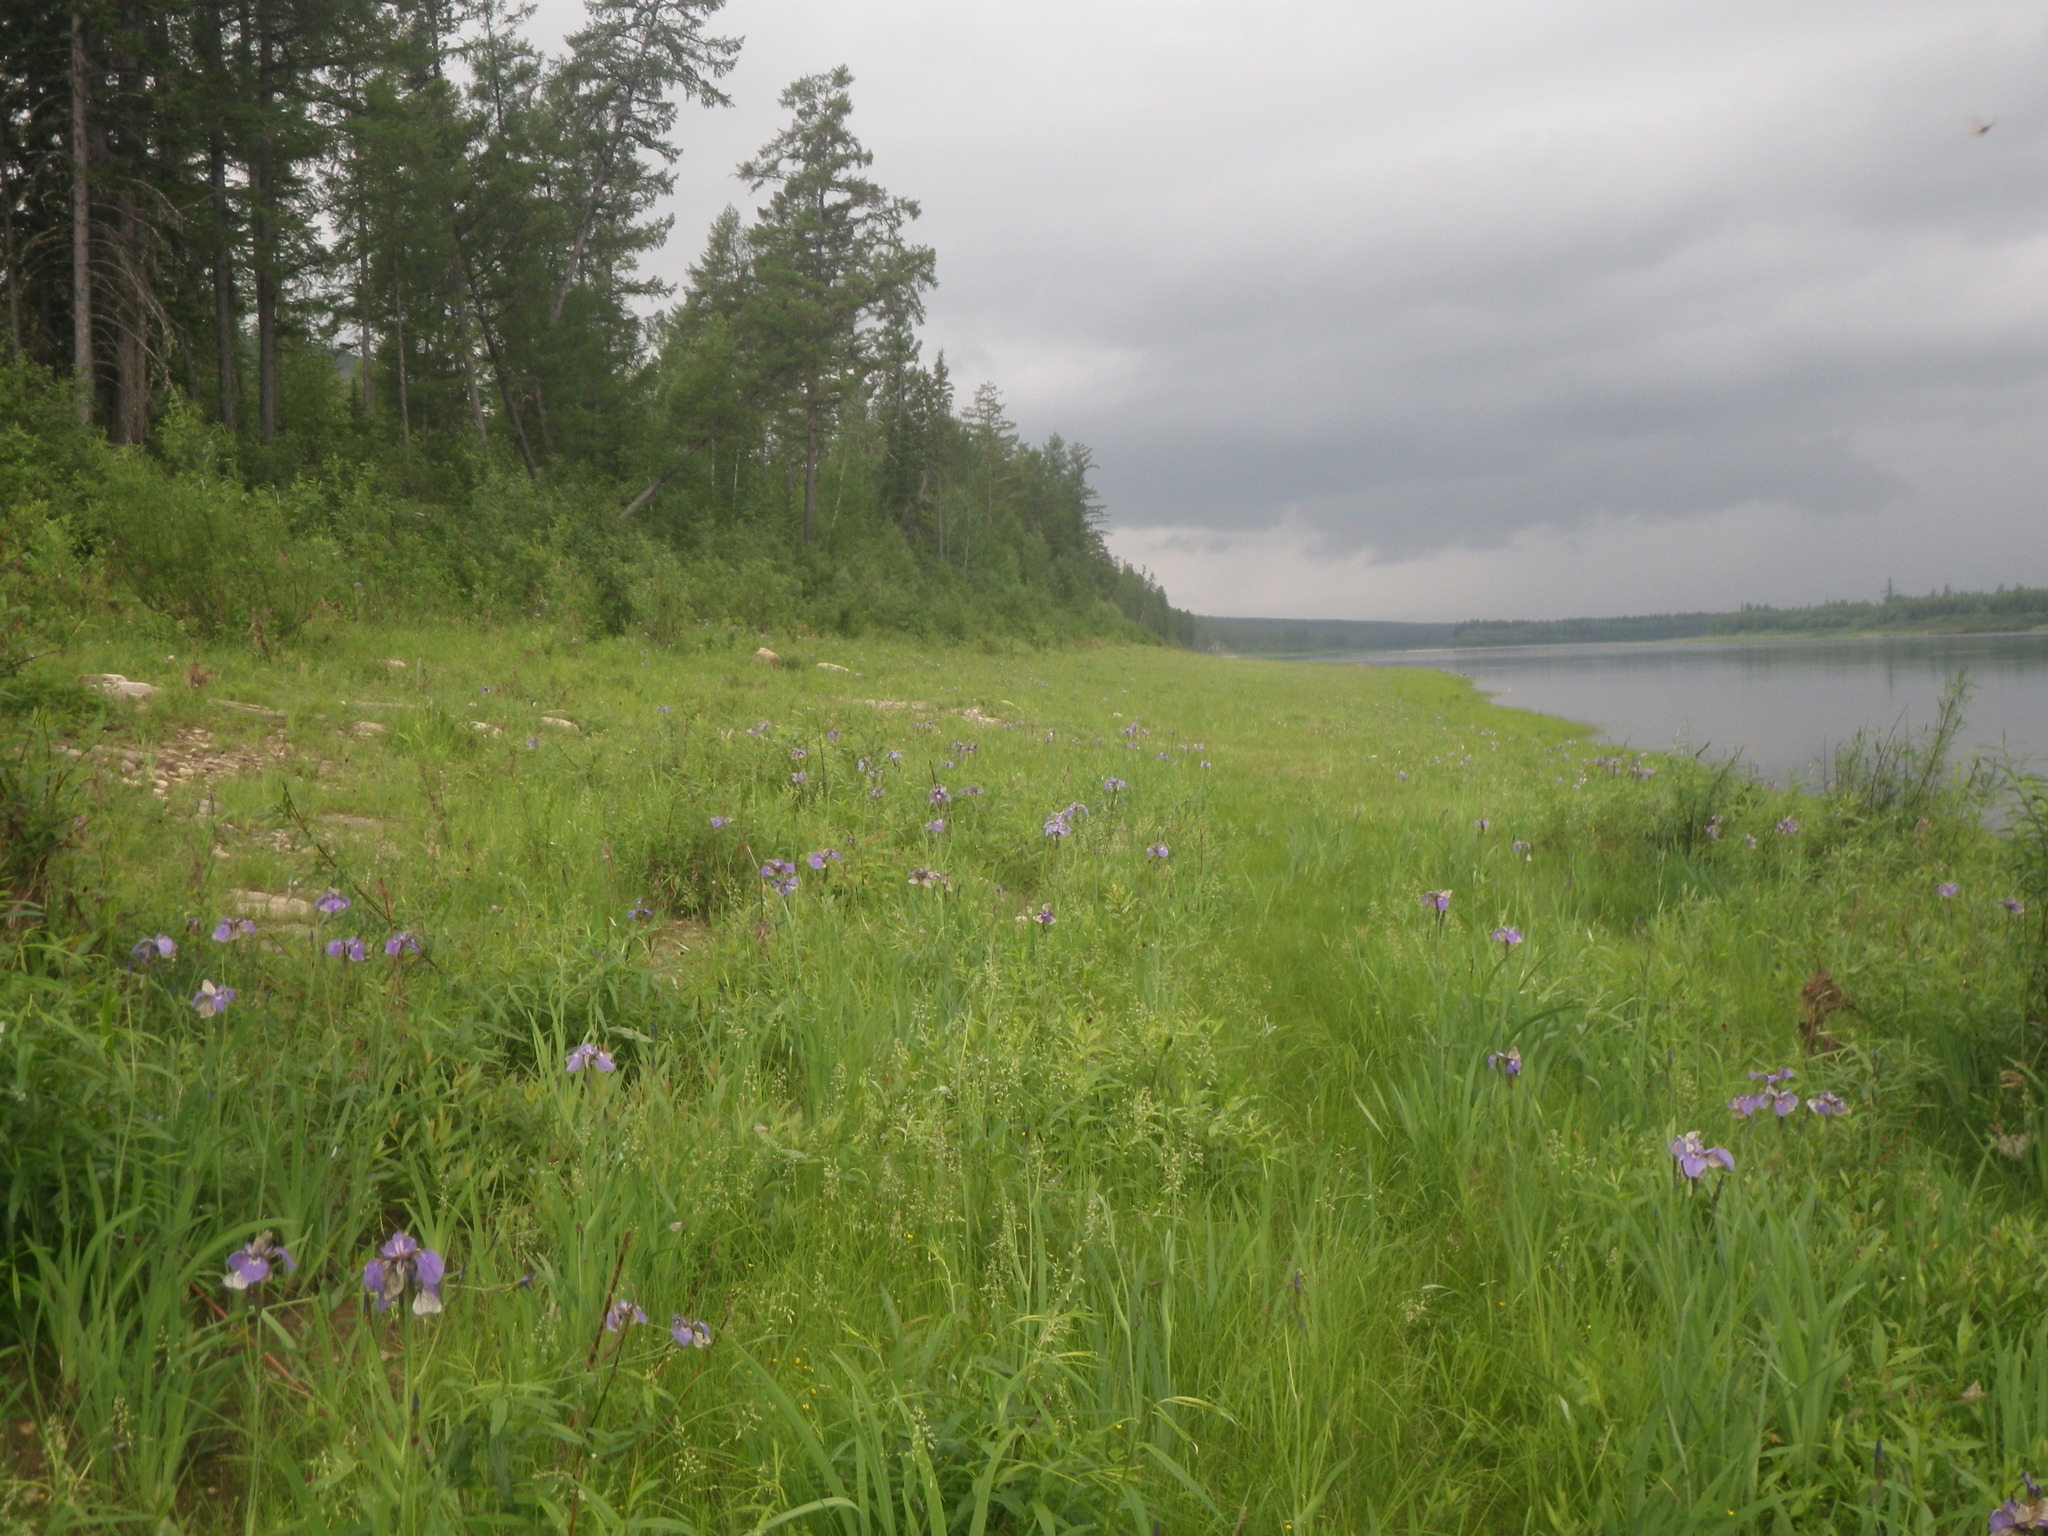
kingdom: Plantae
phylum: Tracheophyta
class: Pinopsida
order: Pinales
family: Pinaceae
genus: Larix
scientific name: Larix gmelinii
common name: Dahurian larch
